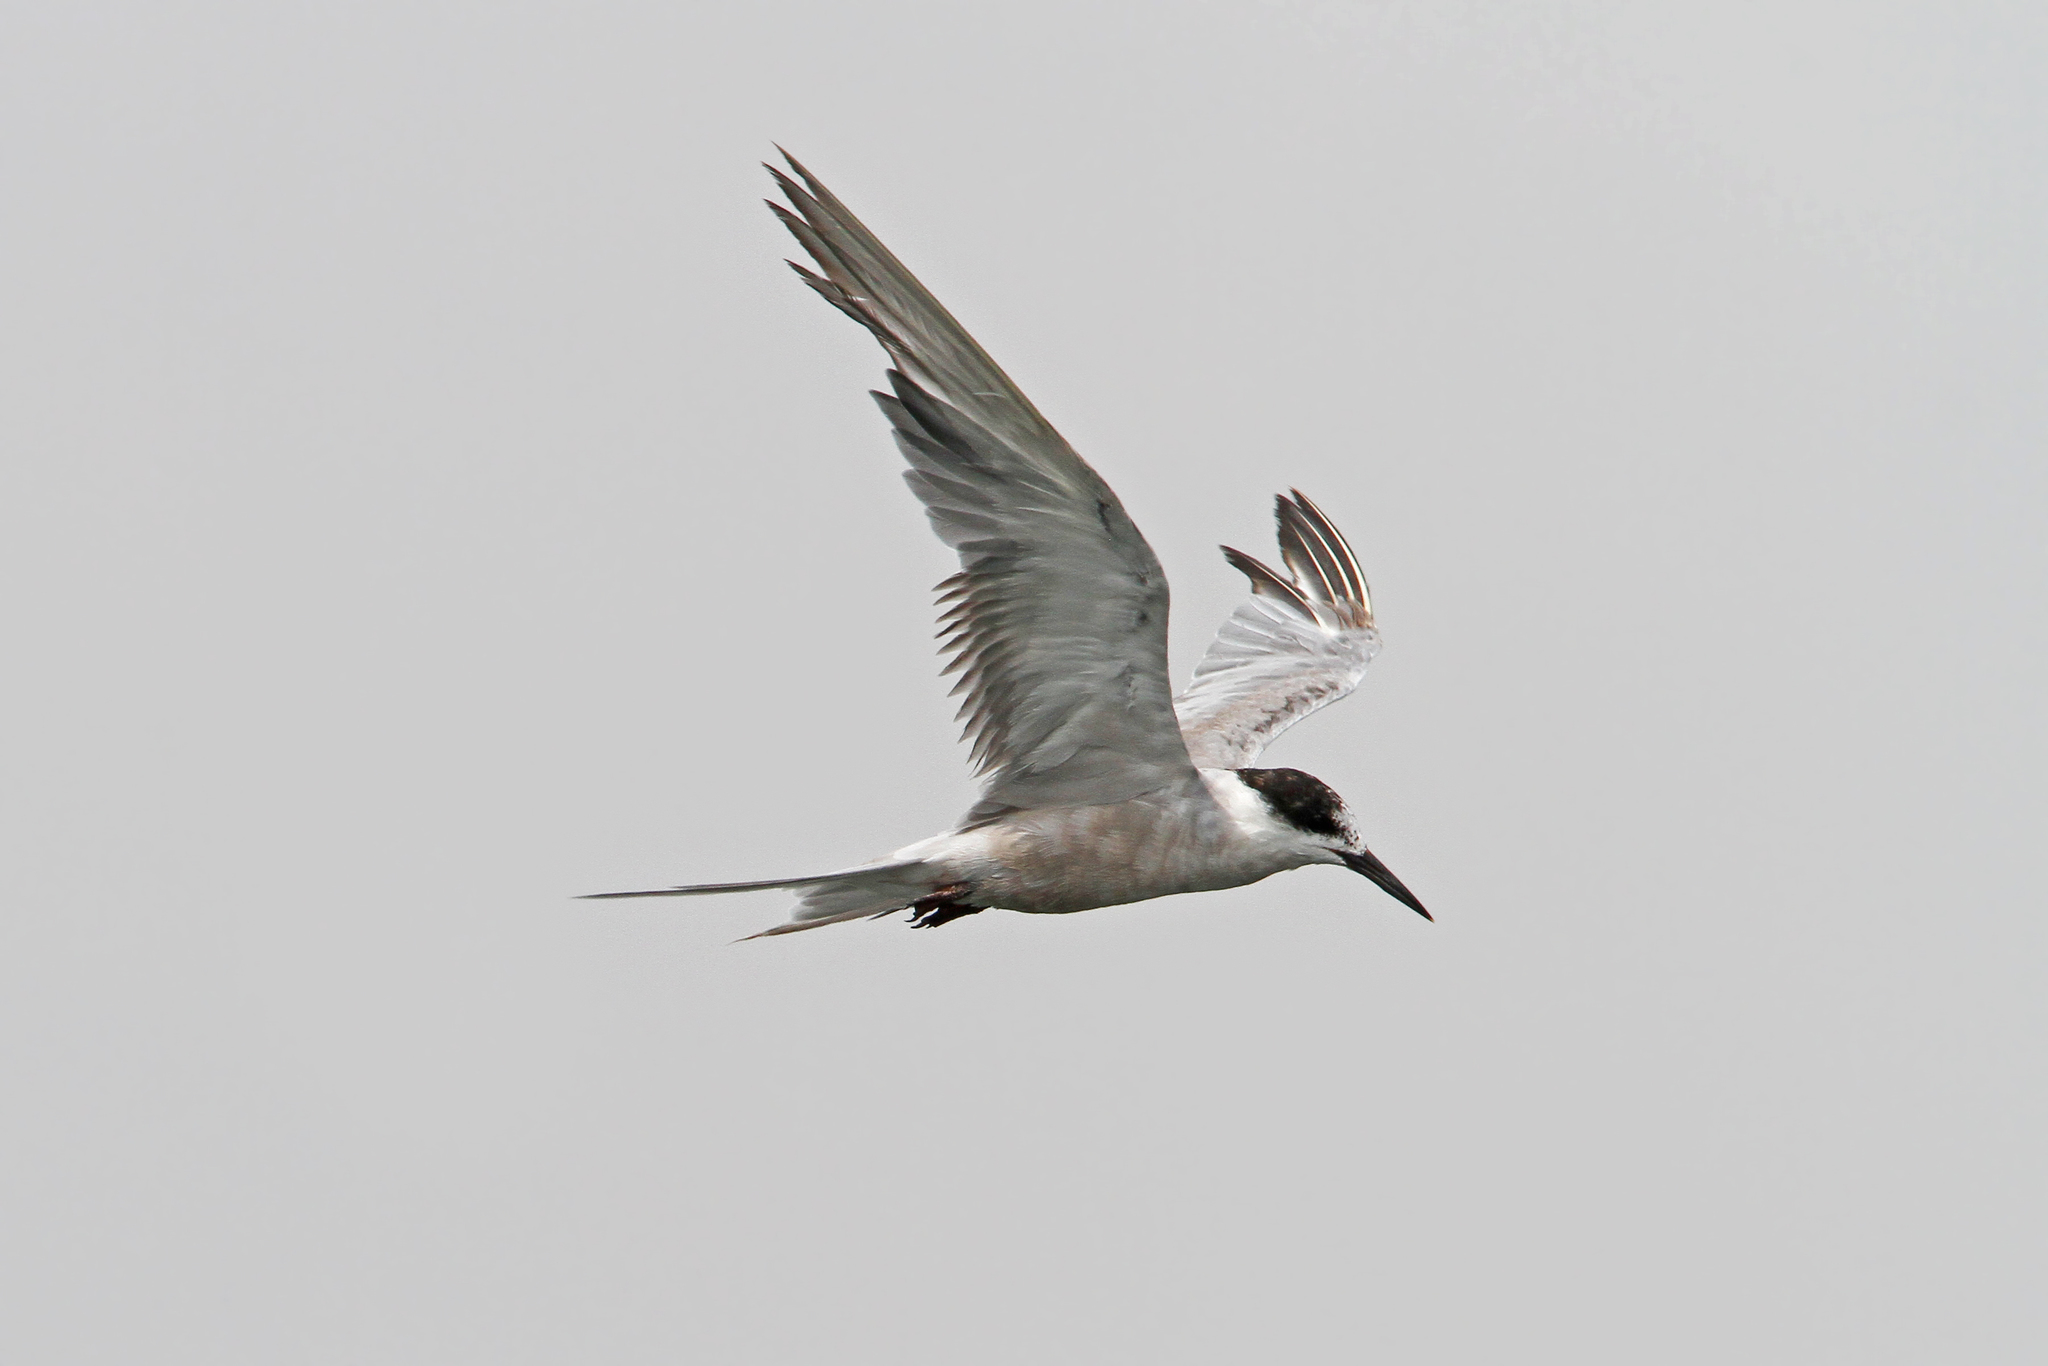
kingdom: Animalia
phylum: Chordata
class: Aves
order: Charadriiformes
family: Laridae
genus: Sterna
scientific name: Sterna repressa
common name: White-cheeked tern
